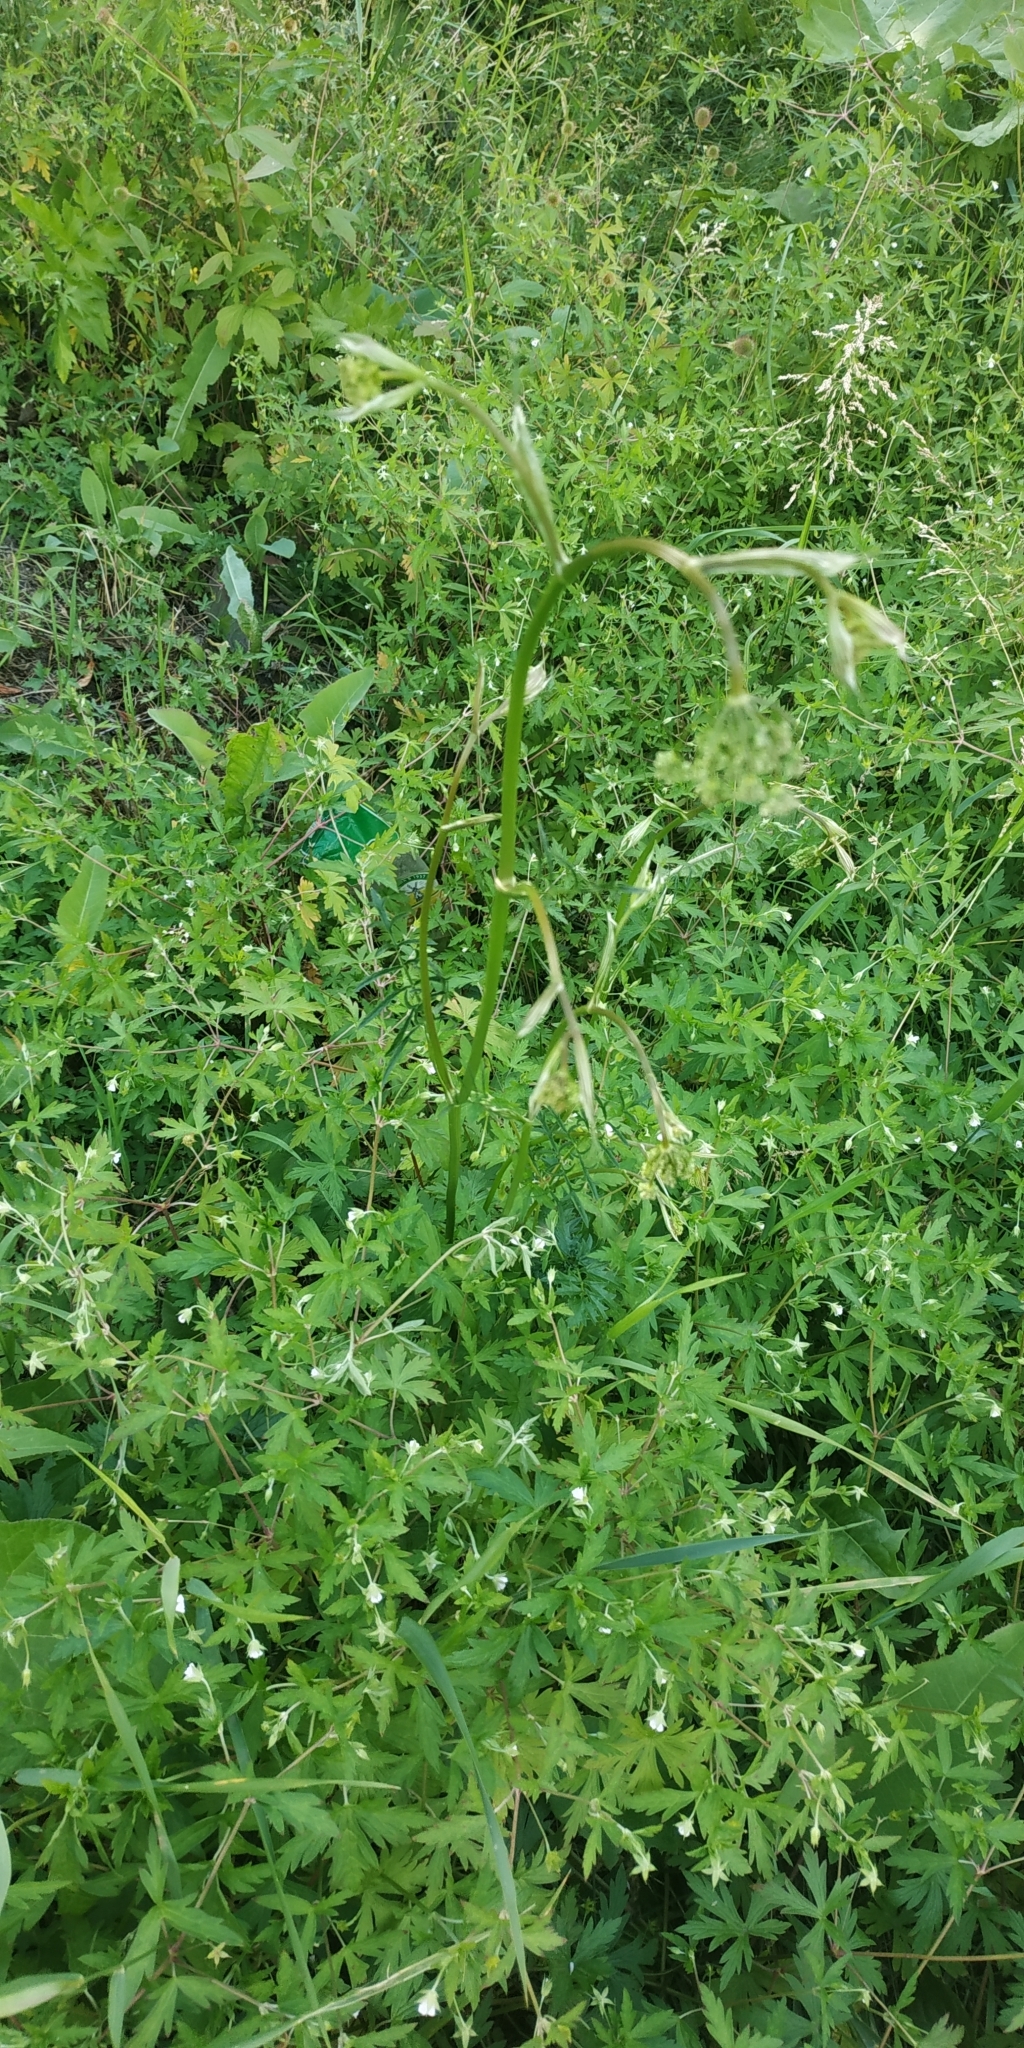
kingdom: Plantae
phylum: Tracheophyta
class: Magnoliopsida
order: Apiales
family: Apiaceae
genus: Pimpinella
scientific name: Pimpinella saxifraga
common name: Burnet-saxifrage
